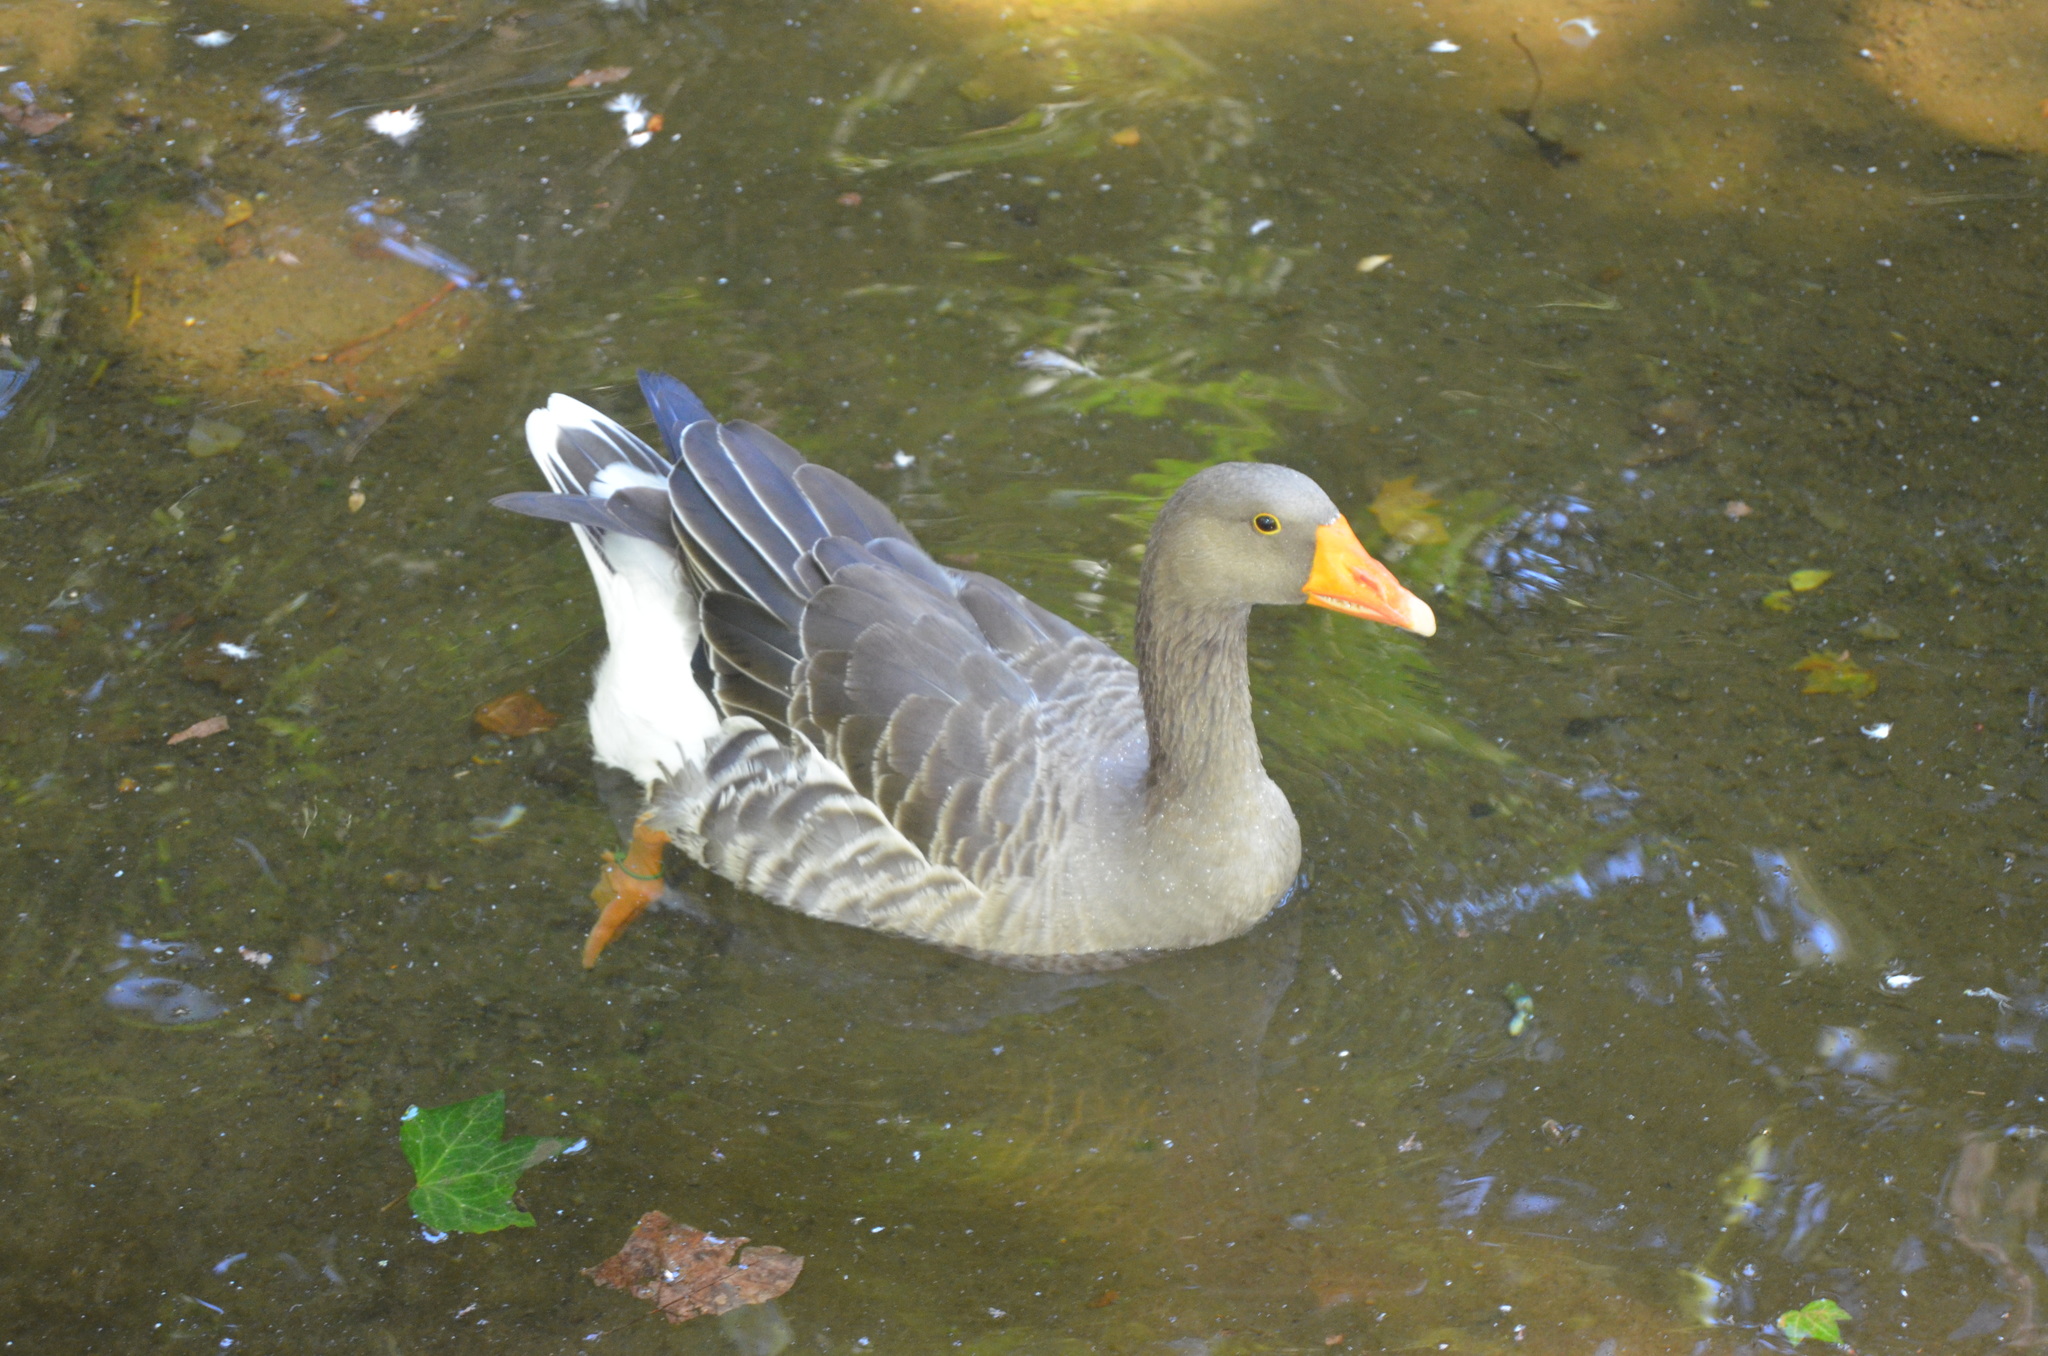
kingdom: Animalia
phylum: Chordata
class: Aves
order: Anseriformes
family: Anatidae
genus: Anser
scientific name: Anser anser
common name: Greylag goose
